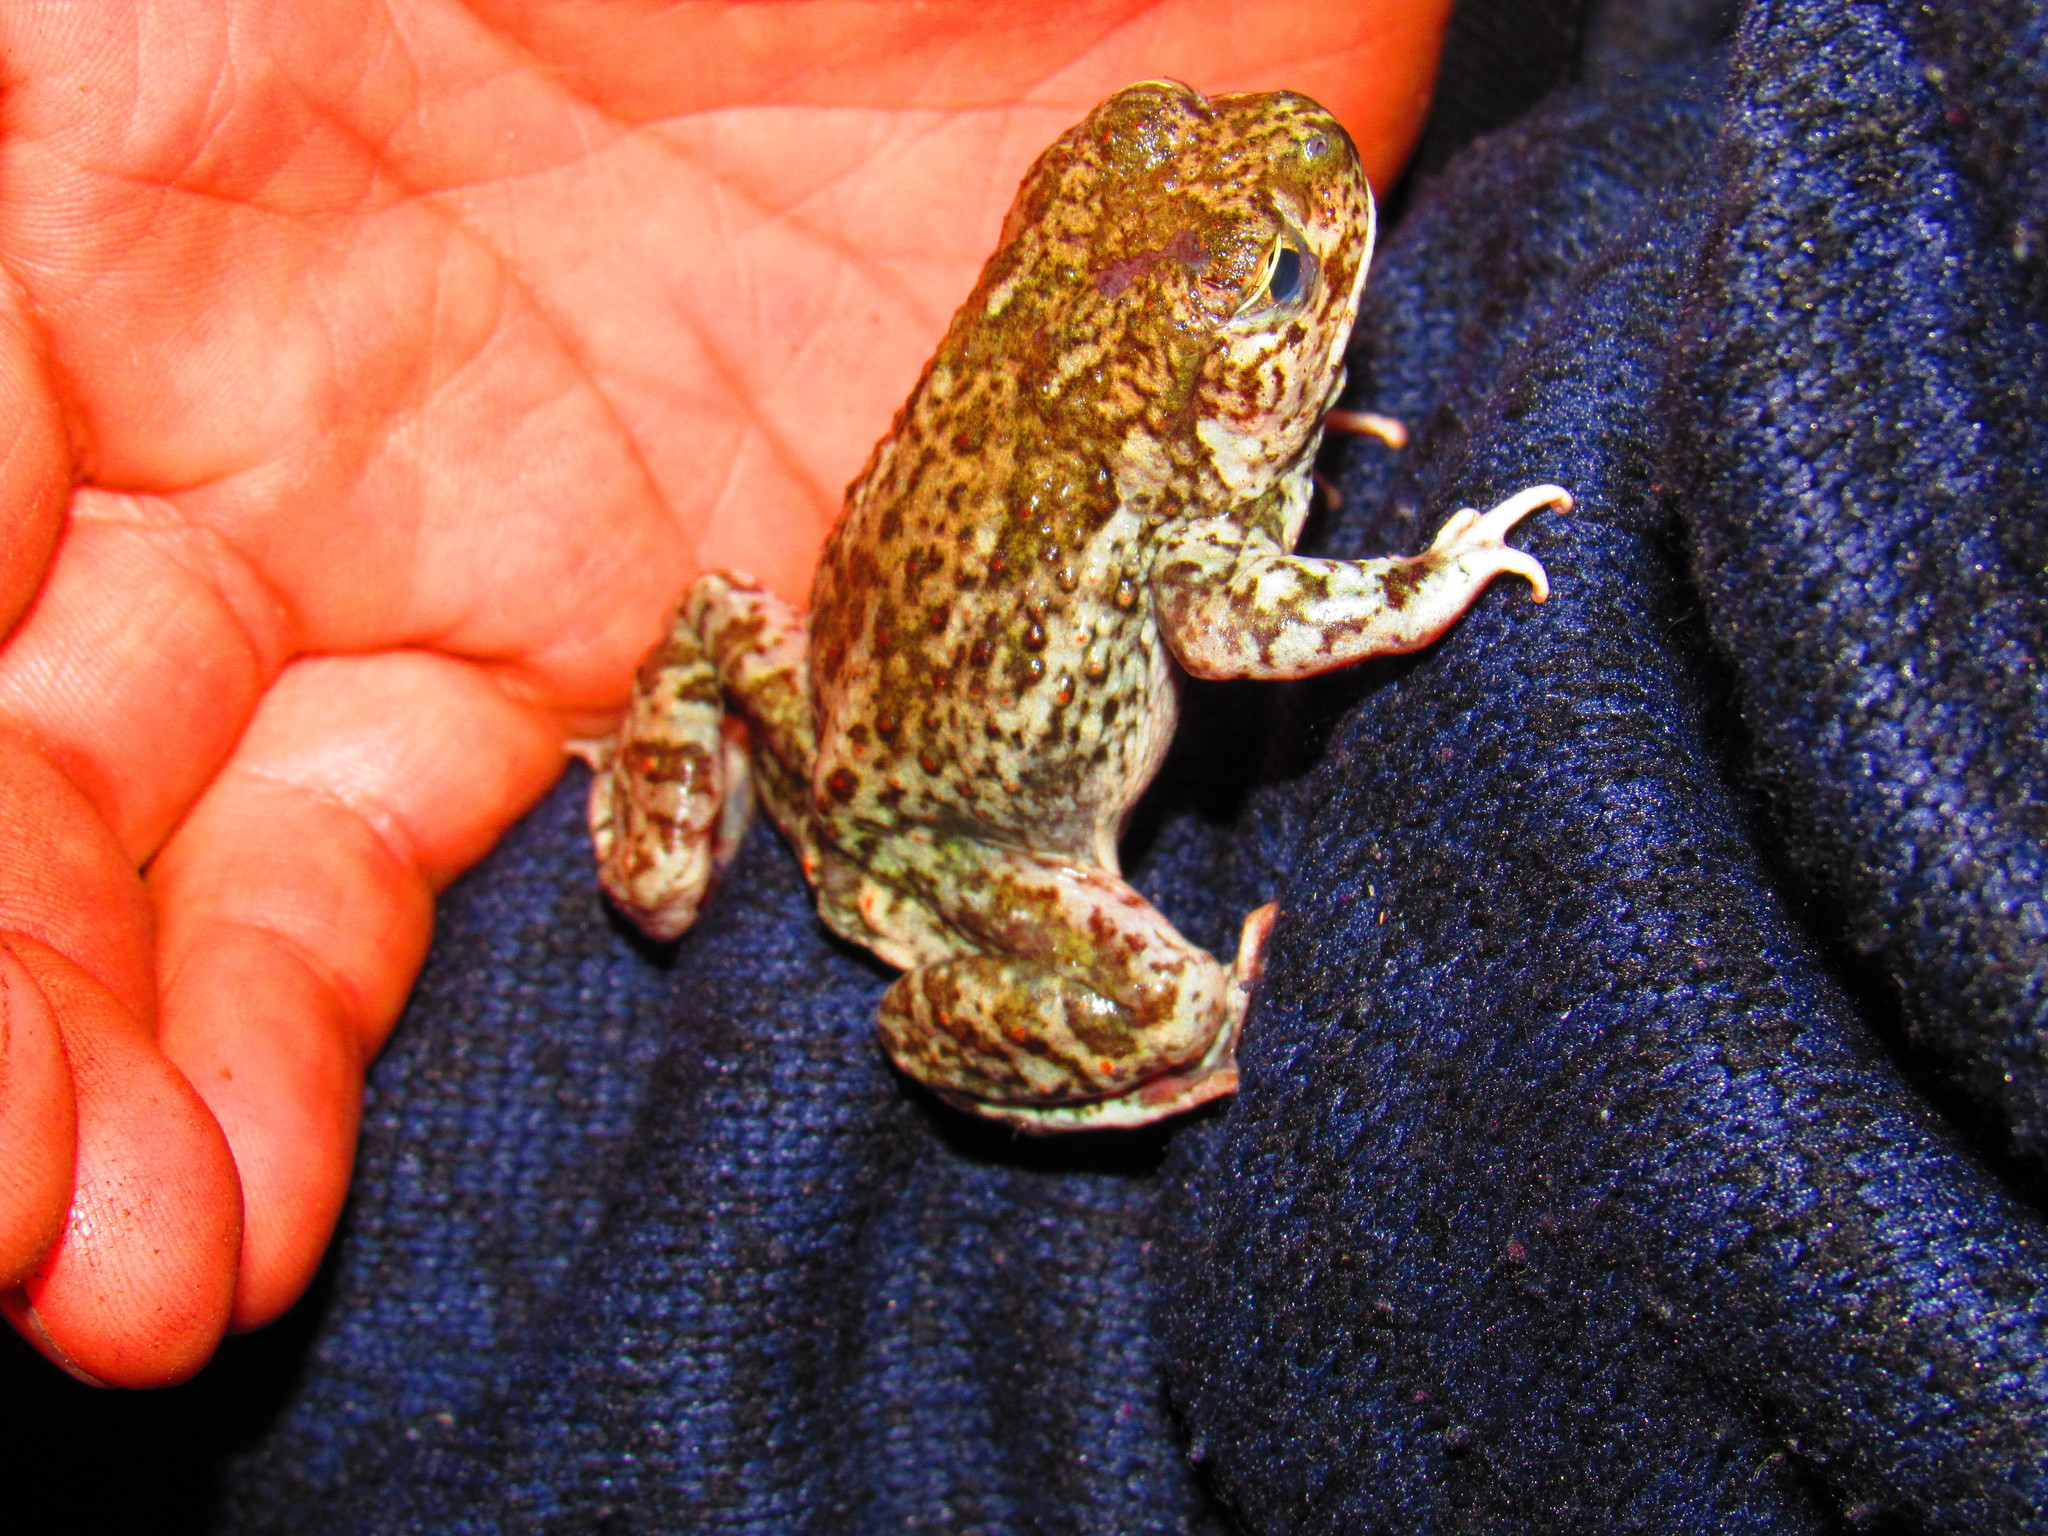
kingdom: Animalia
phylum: Chordata
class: Amphibia
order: Anura
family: Scaphiopodidae
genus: Spea
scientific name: Spea multiplicata
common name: Mexican spadefoot
